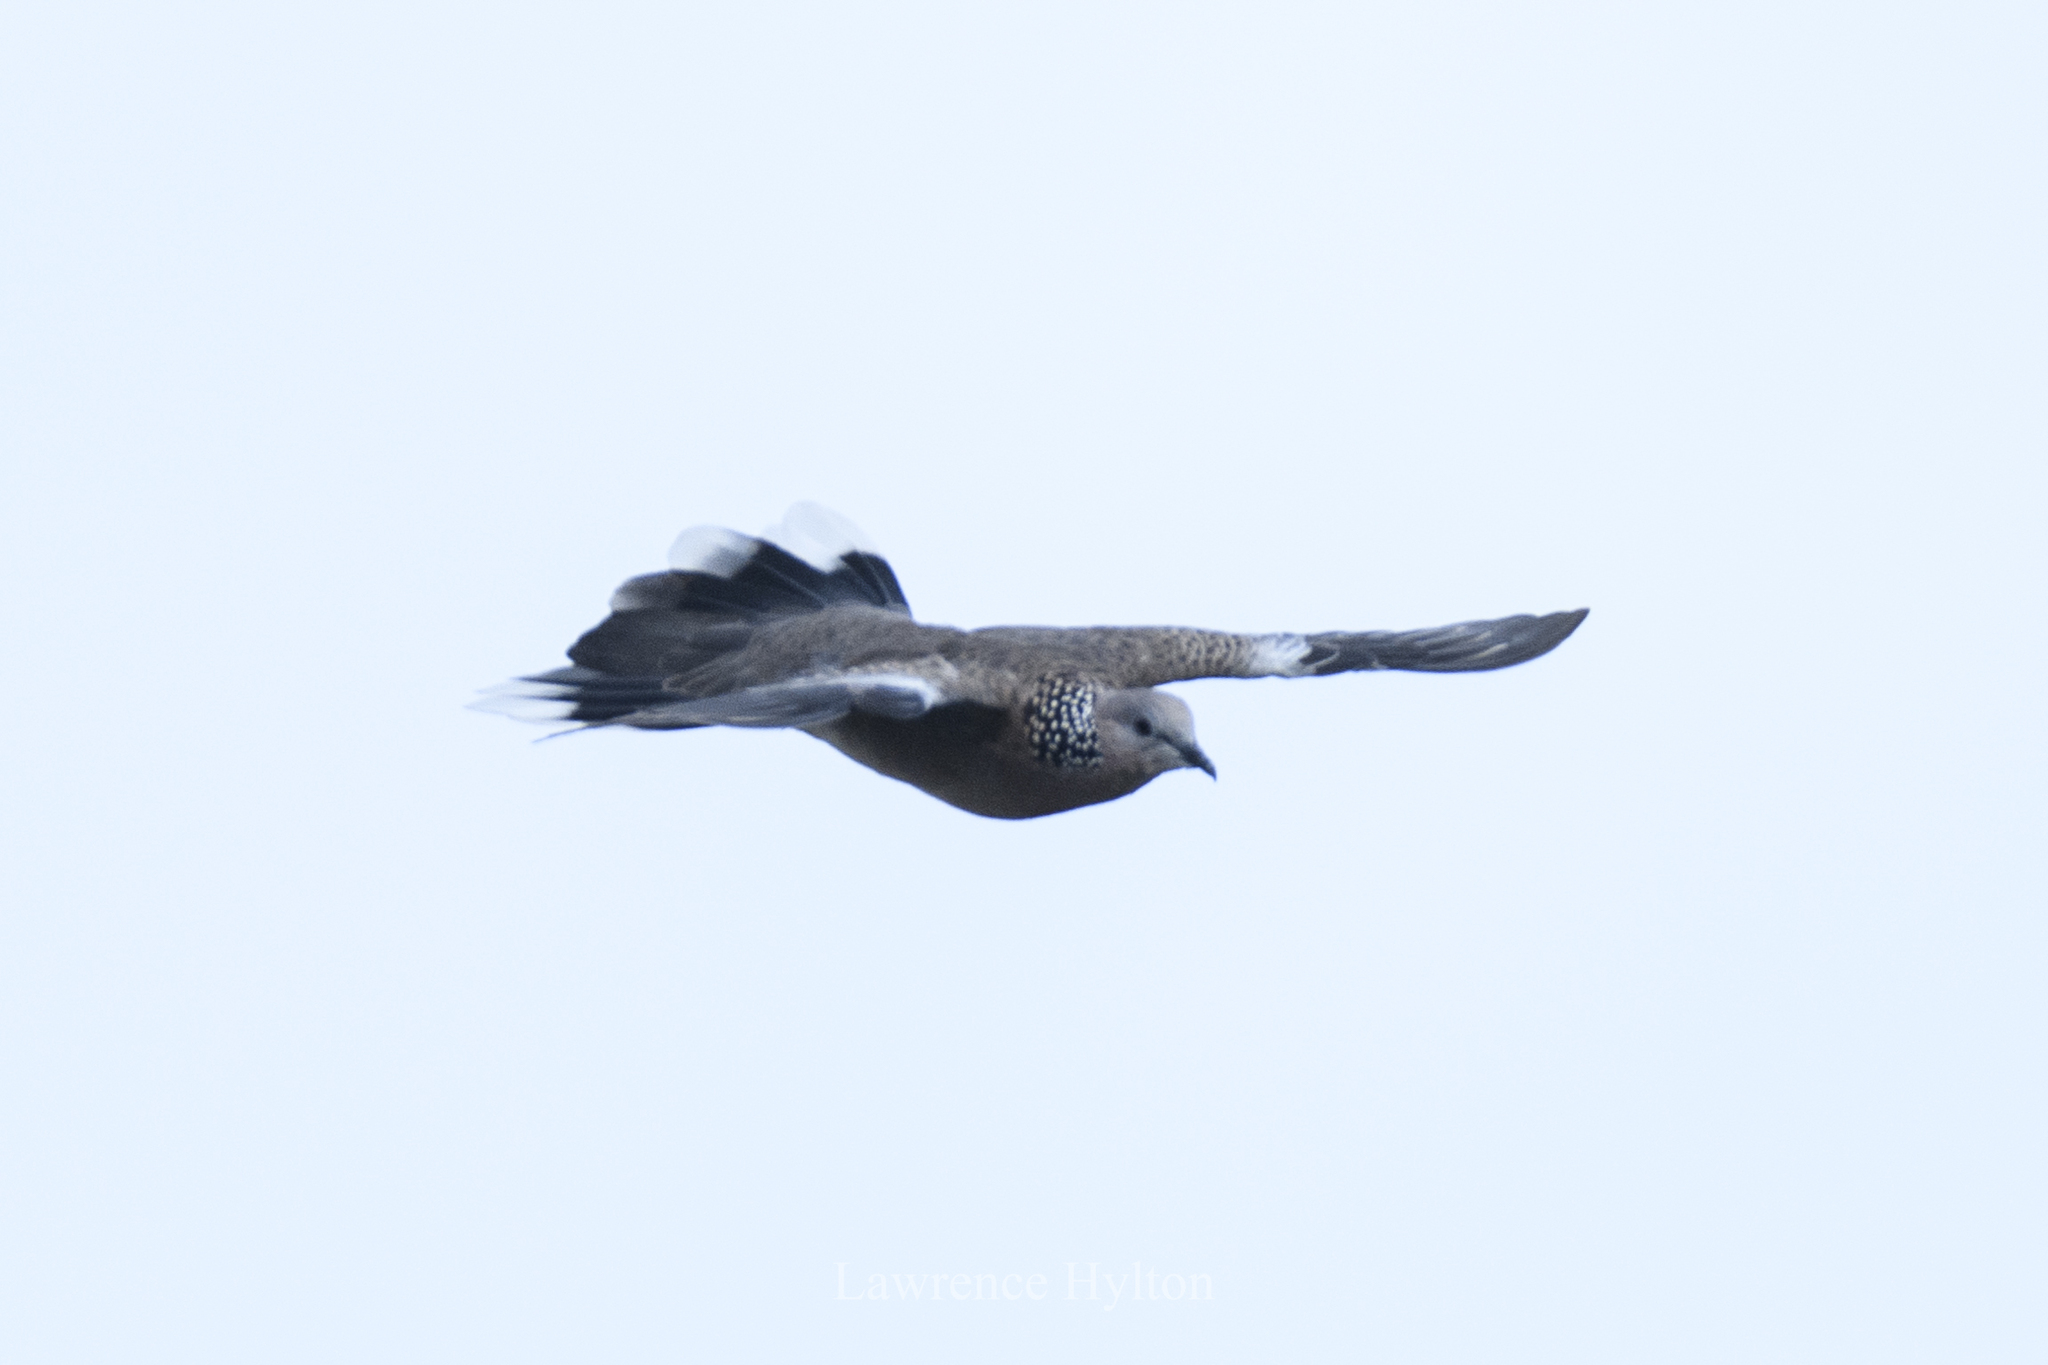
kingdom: Animalia
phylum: Chordata
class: Aves
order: Columbiformes
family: Columbidae
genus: Spilopelia
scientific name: Spilopelia chinensis
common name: Spotted dove
